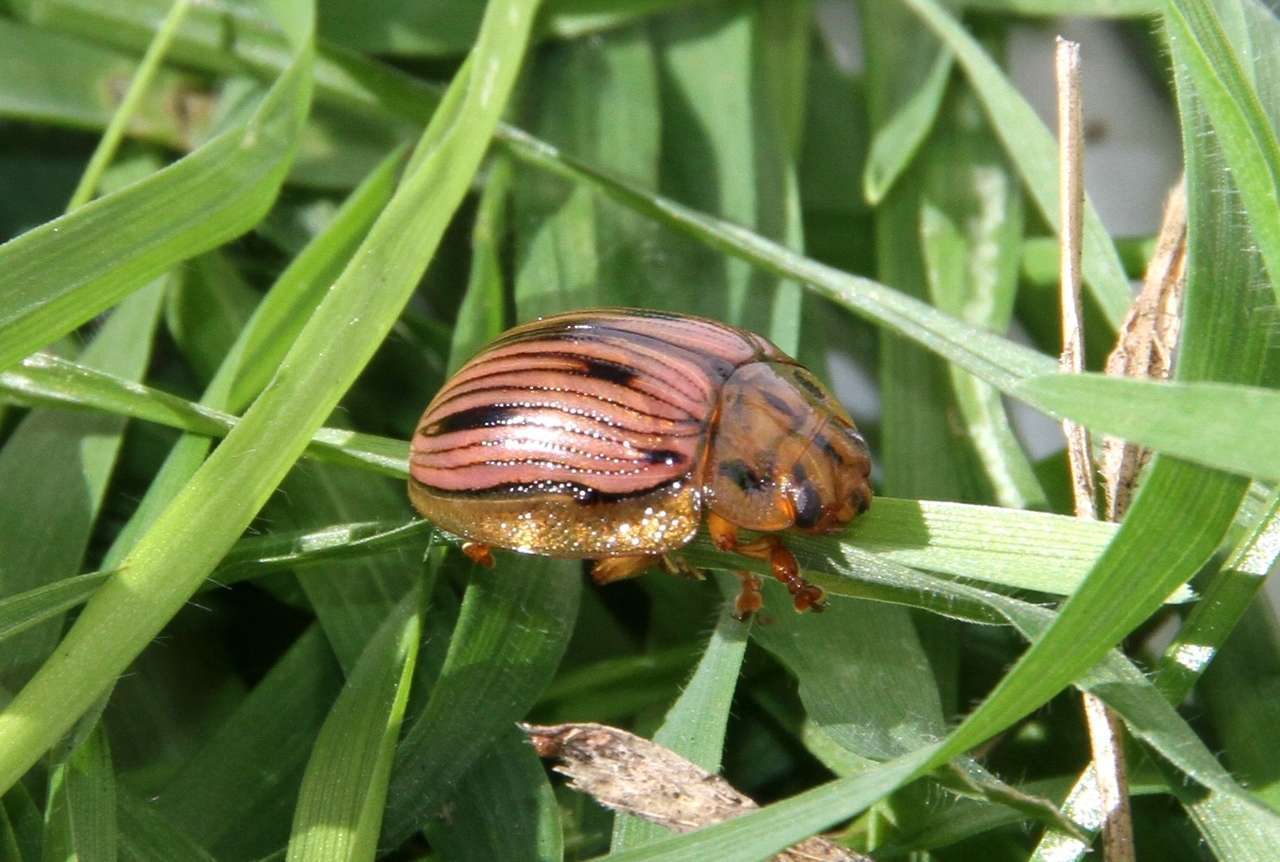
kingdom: Animalia
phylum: Arthropoda
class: Insecta
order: Coleoptera
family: Chrysomelidae
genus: Paropsisterna
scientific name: Paropsisterna
